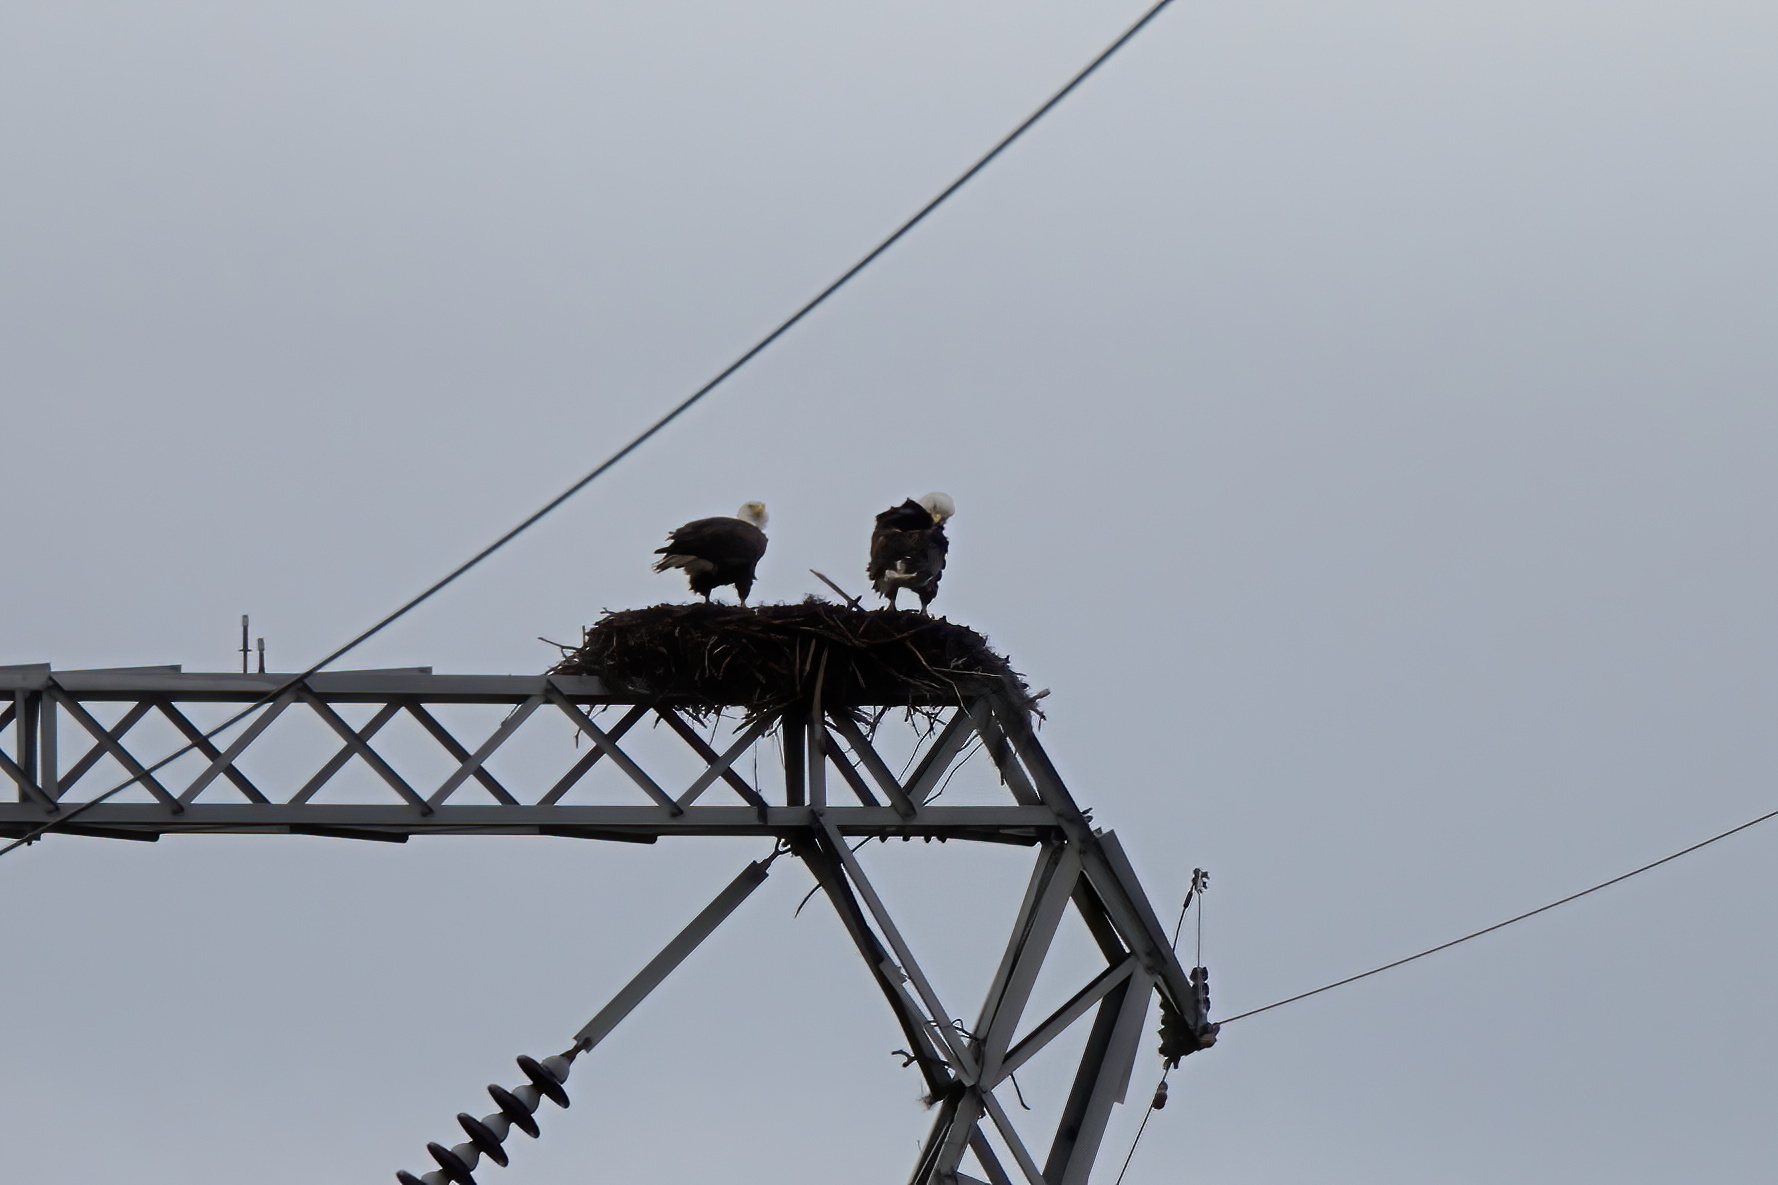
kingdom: Animalia
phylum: Chordata
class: Aves
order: Accipitriformes
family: Accipitridae
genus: Haliaeetus
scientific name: Haliaeetus leucocephalus
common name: Bald eagle
